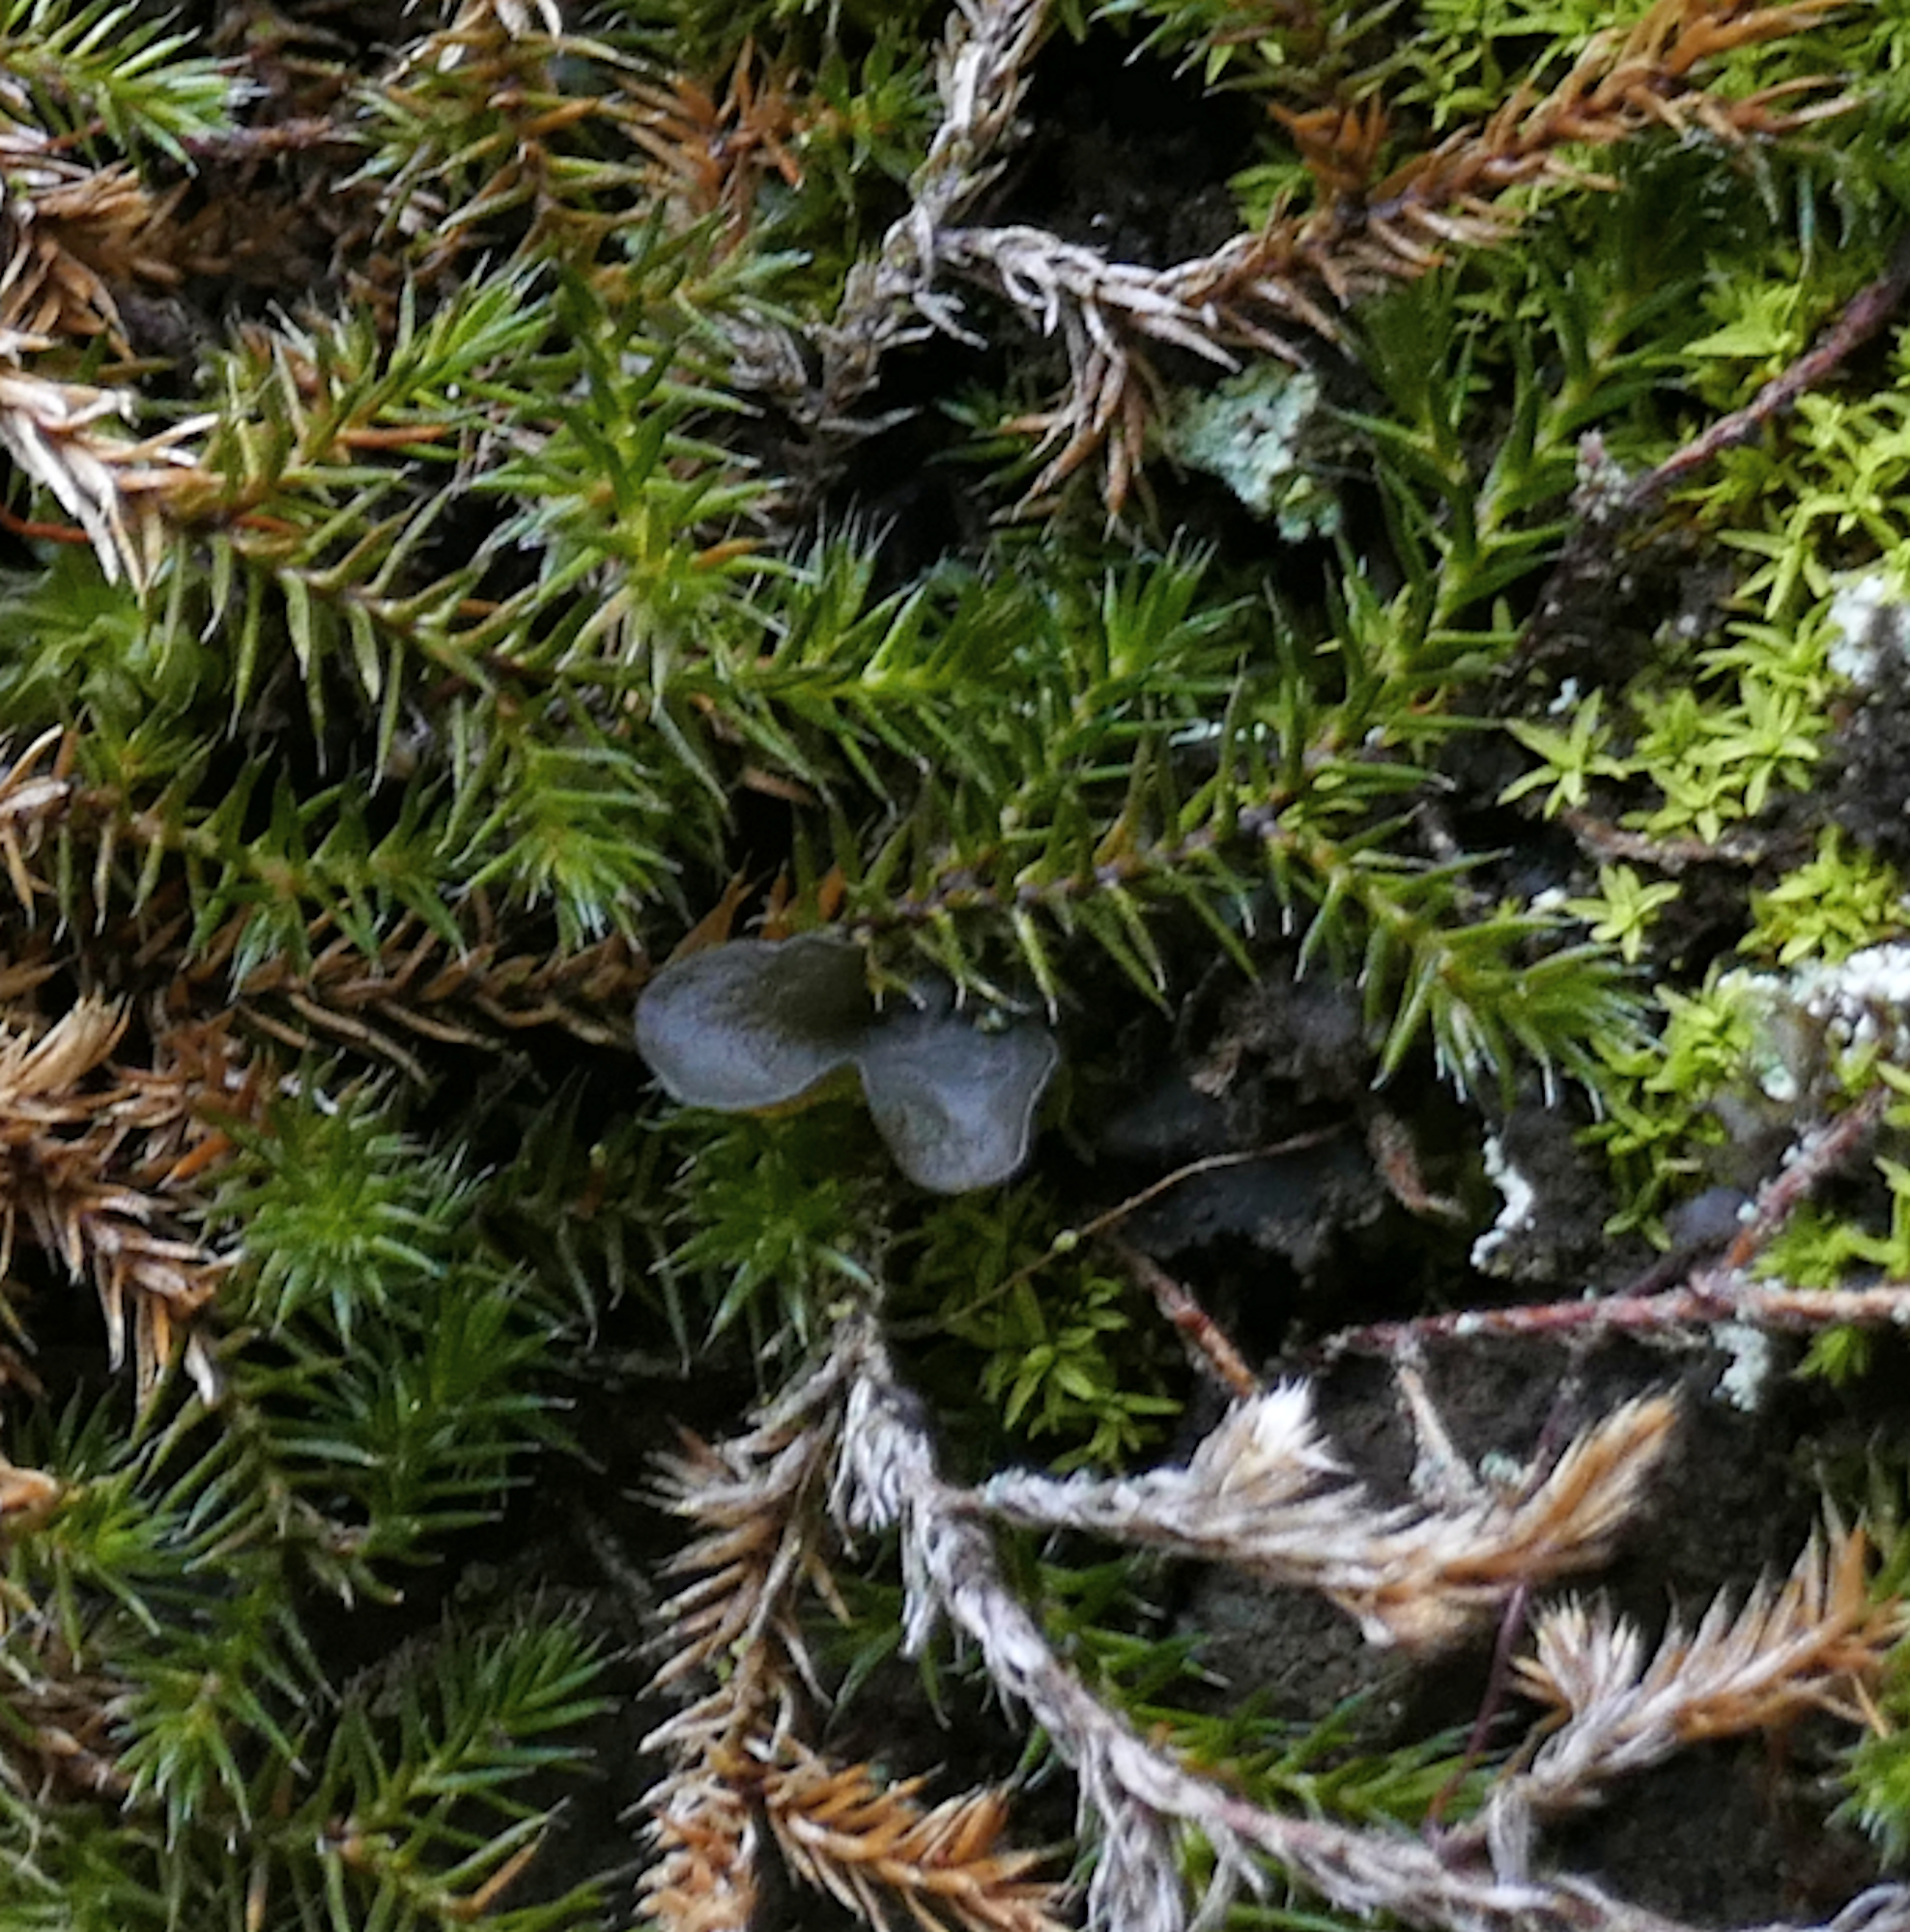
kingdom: Plantae
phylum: Tracheophyta
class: Lycopodiopsida
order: Selaginellales
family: Selaginellaceae
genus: Selaginella
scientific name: Selaginella underwoodii
